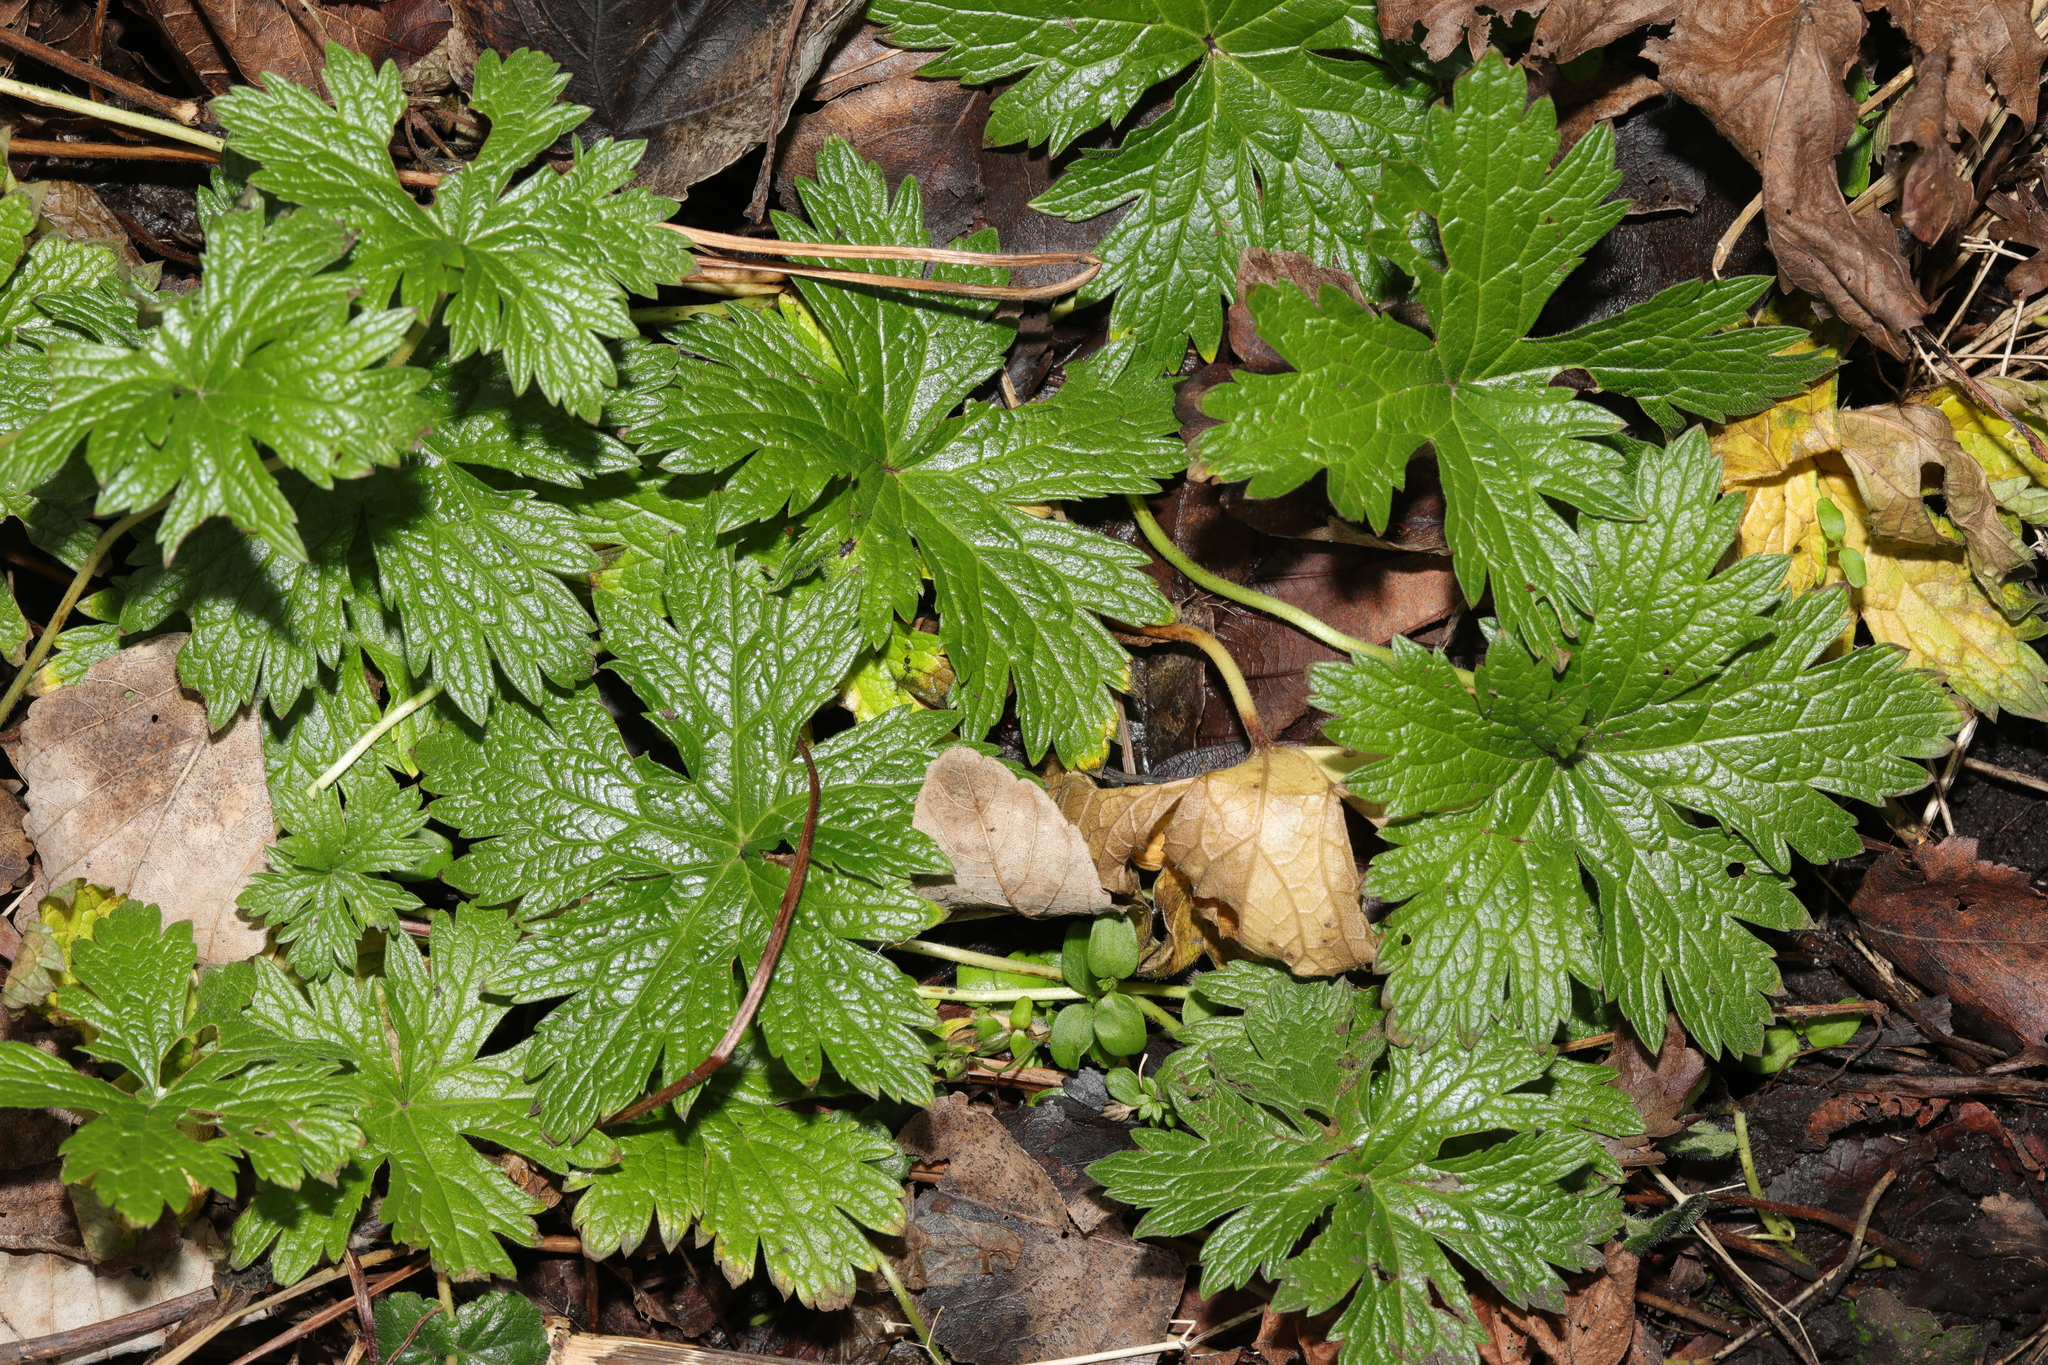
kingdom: Plantae
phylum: Tracheophyta
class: Magnoliopsida
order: Geraniales
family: Geraniaceae
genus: Geranium
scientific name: Geranium oxonianum
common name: Druce's crane's-bill
